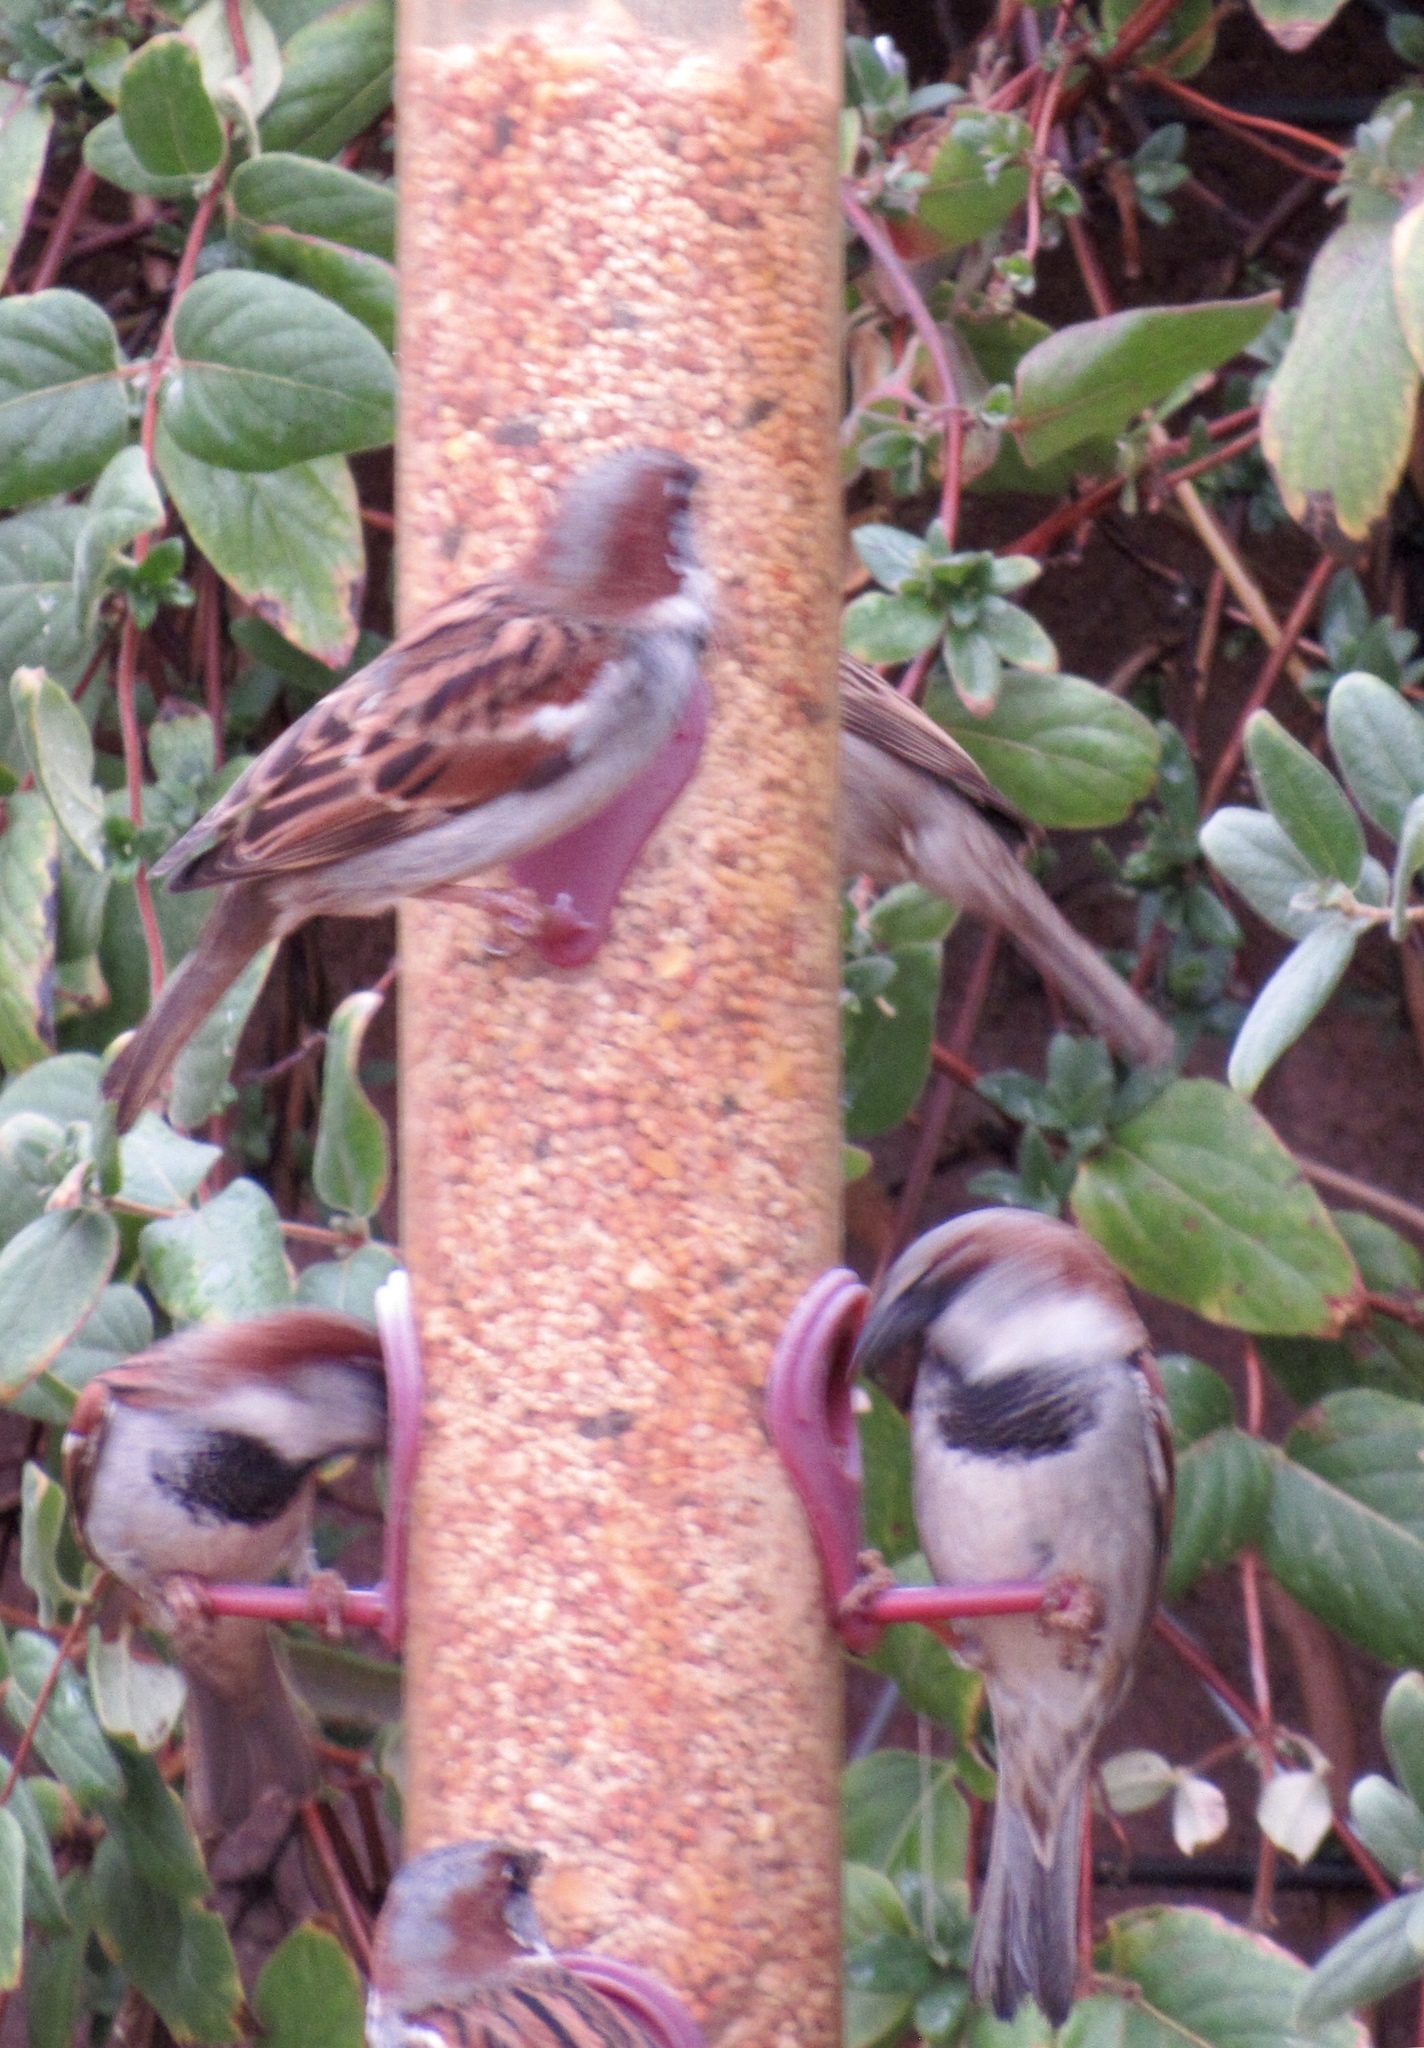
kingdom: Animalia
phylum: Chordata
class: Aves
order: Passeriformes
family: Passeridae
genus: Passer
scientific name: Passer domesticus
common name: House sparrow
